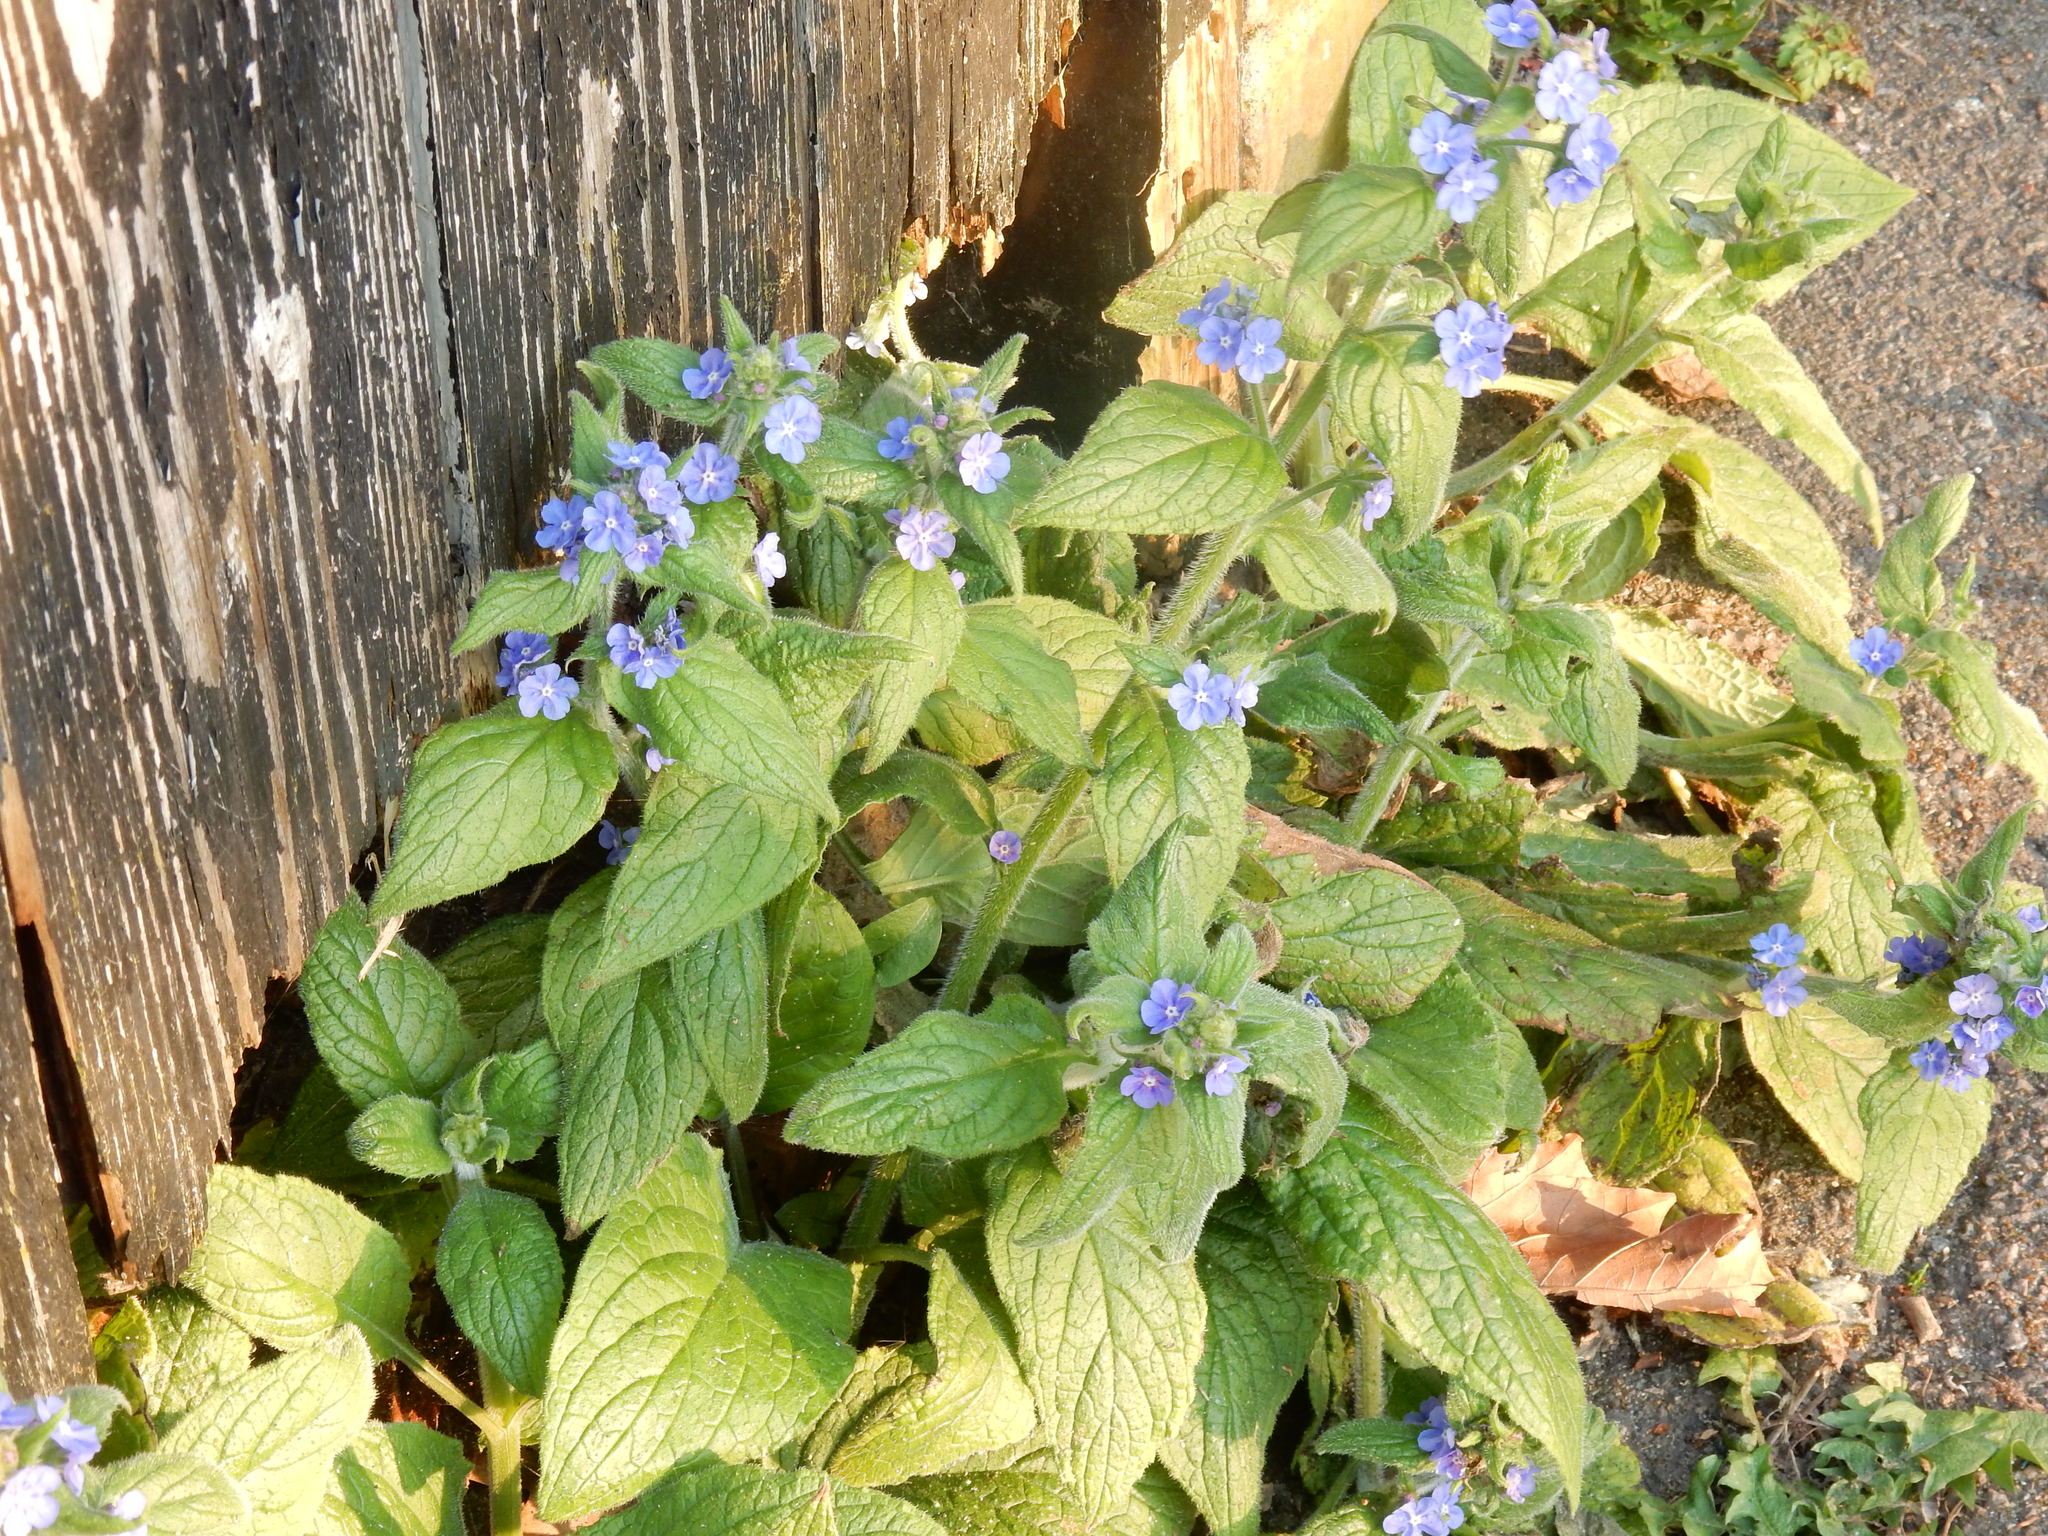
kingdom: Plantae
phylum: Tracheophyta
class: Magnoliopsida
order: Boraginales
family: Boraginaceae
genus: Pentaglottis
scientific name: Pentaglottis sempervirens
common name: Green alkanet
